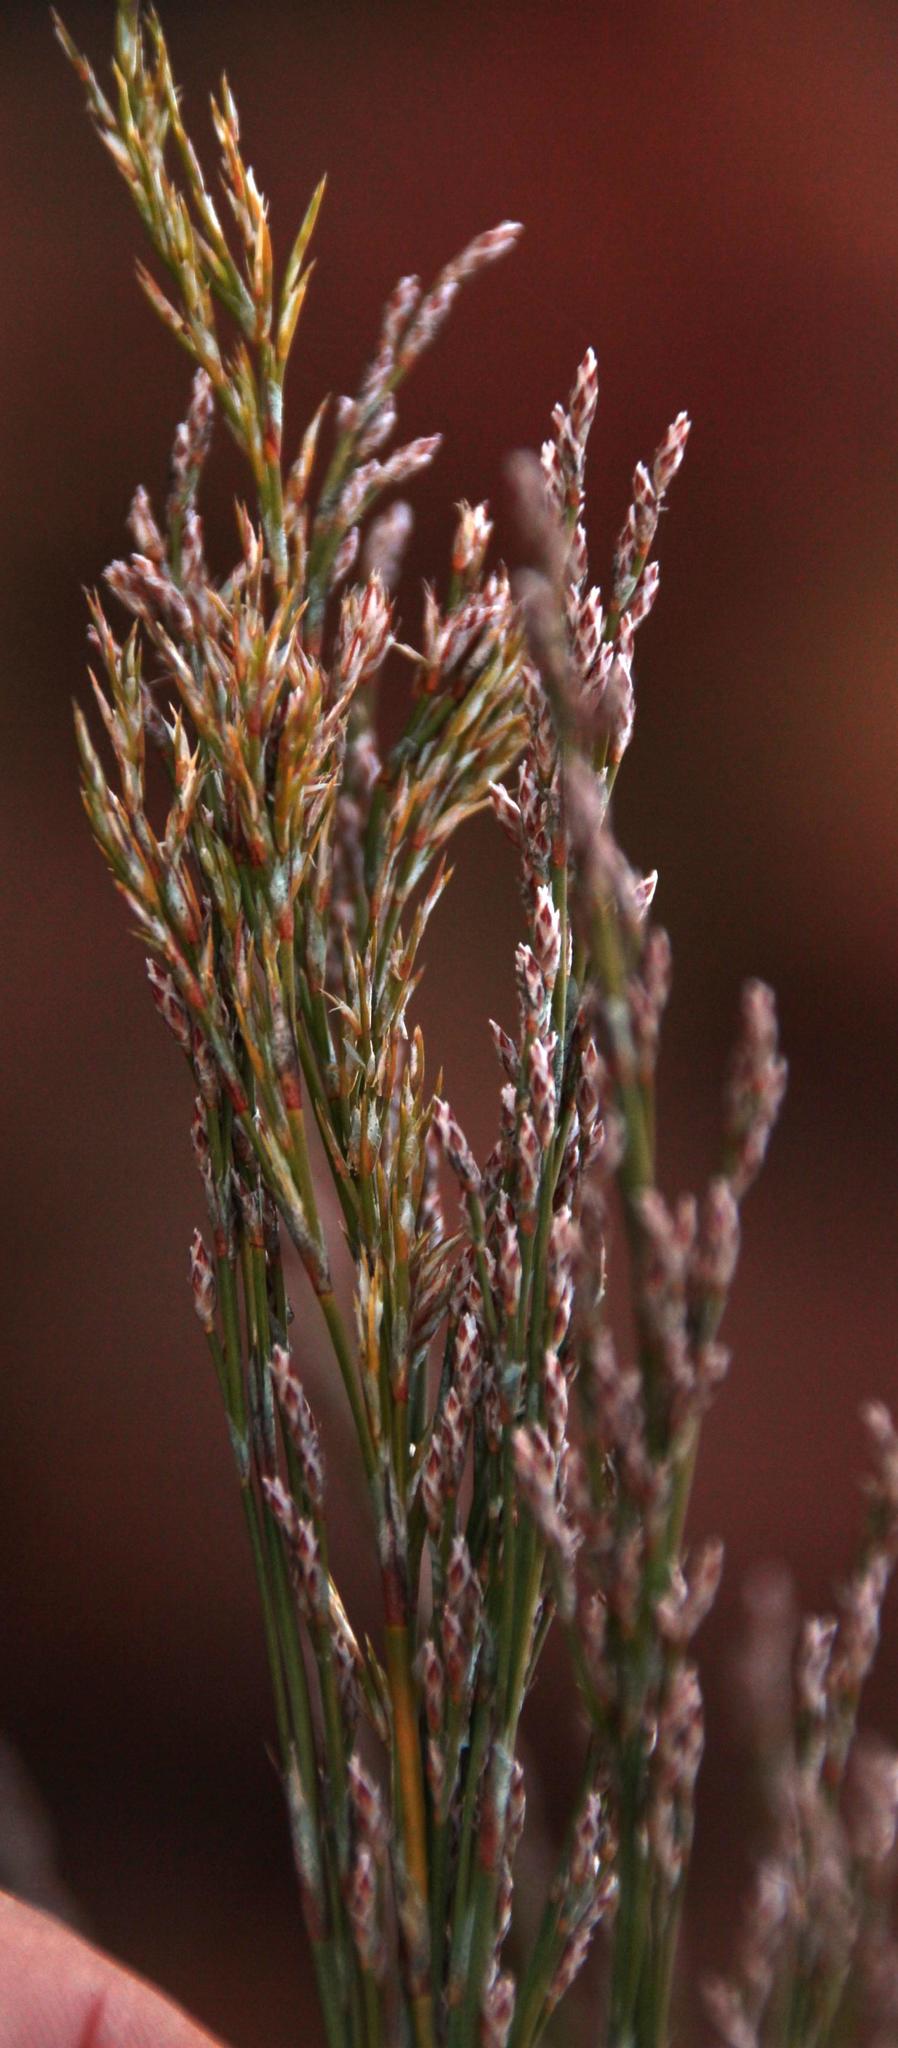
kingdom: Plantae
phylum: Tracheophyta
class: Liliopsida
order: Poales
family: Restionaceae
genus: Restio
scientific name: Restio paniculatus
